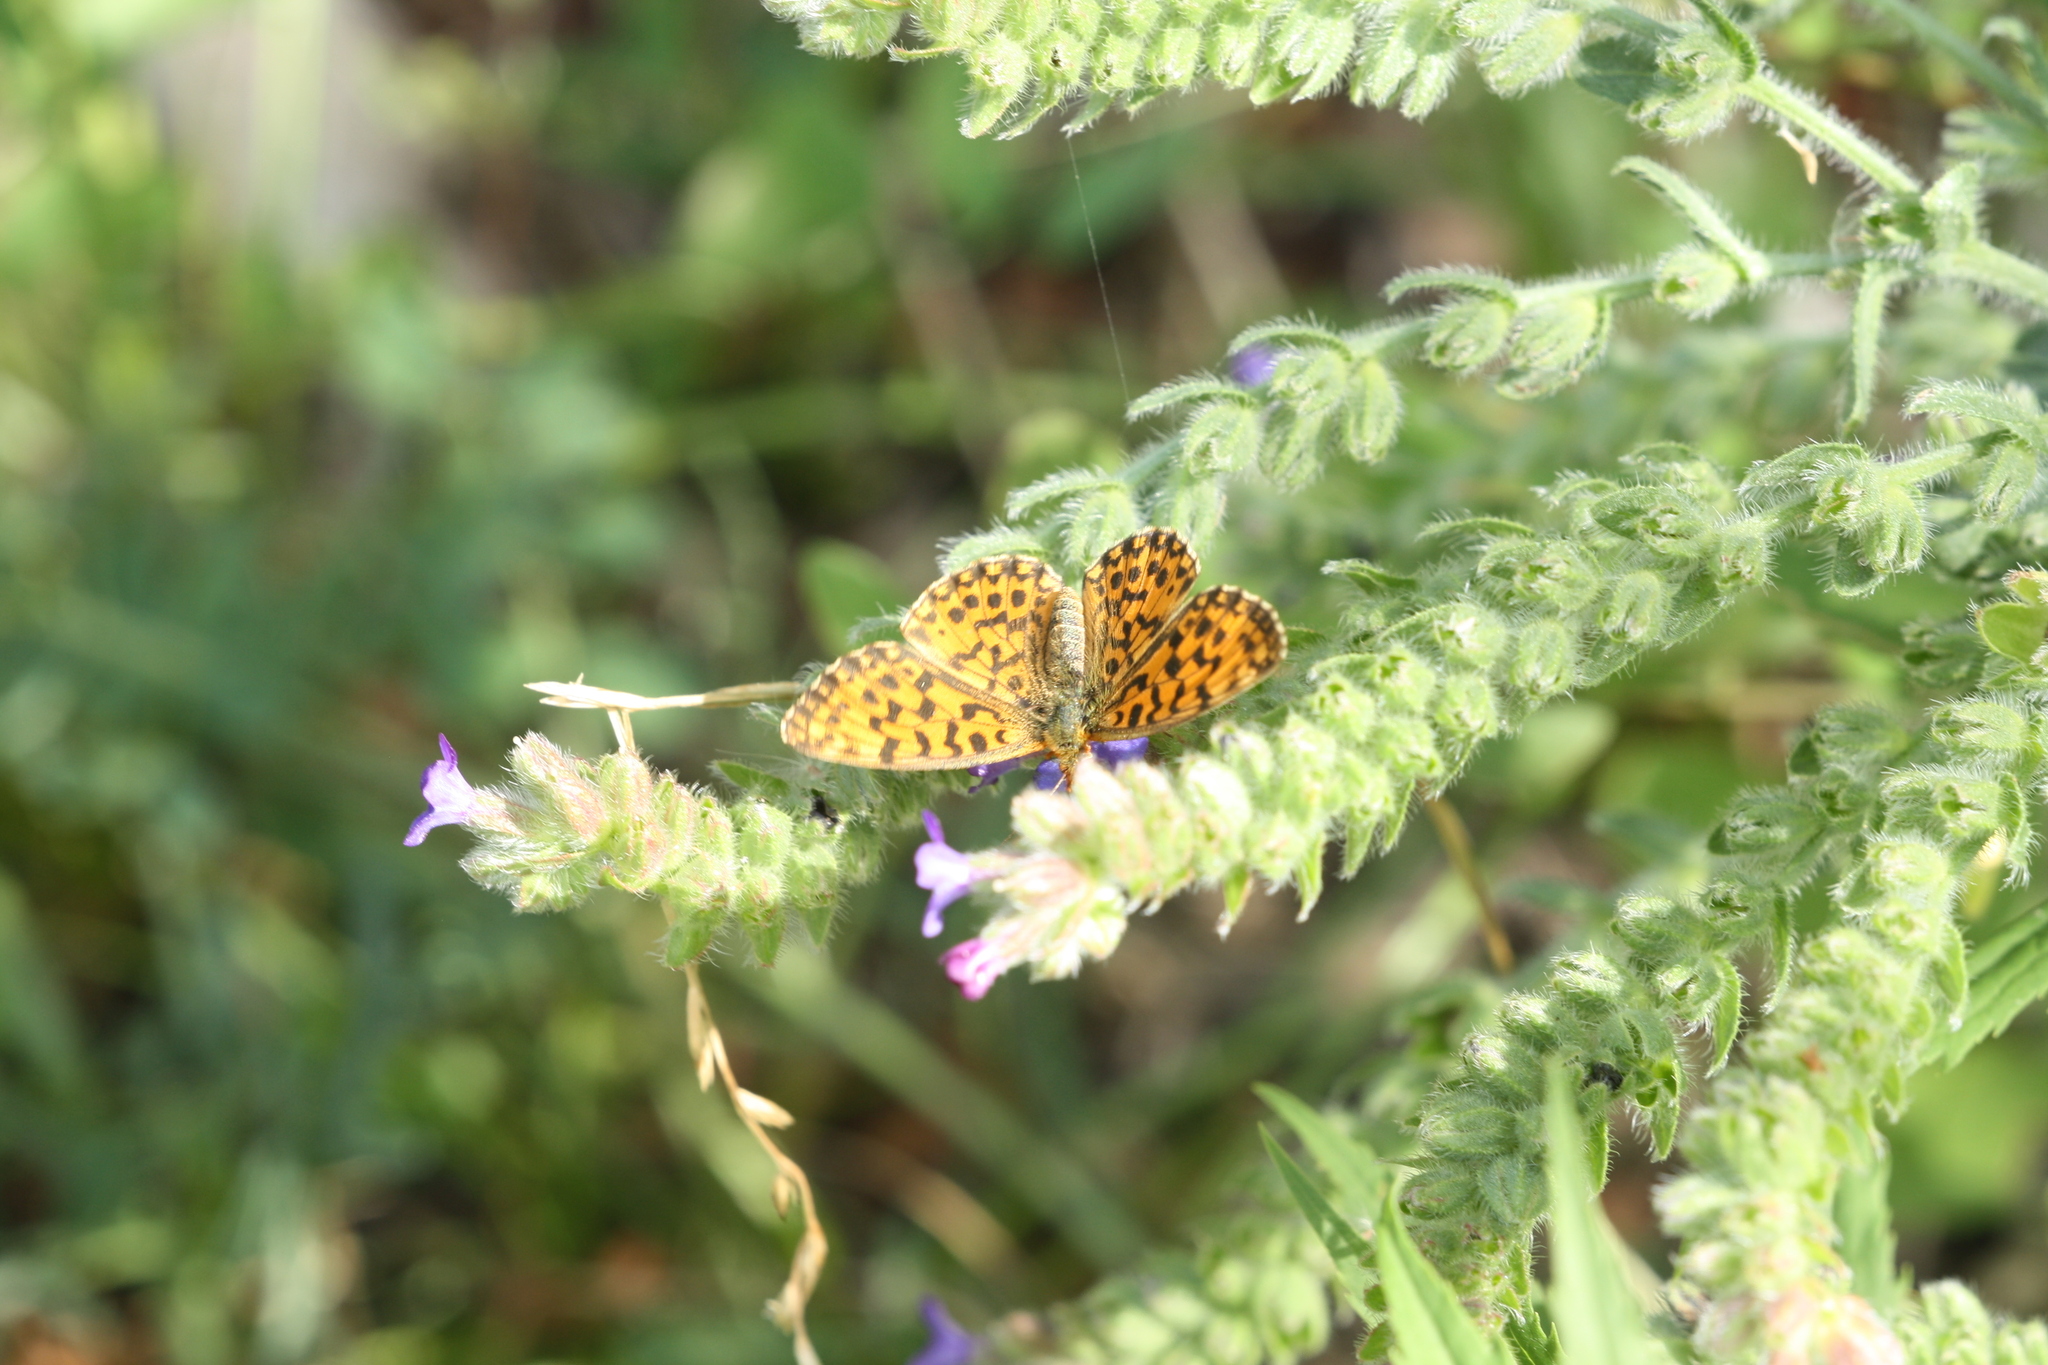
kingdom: Animalia
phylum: Arthropoda
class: Insecta
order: Lepidoptera
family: Nymphalidae
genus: Boloria
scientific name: Boloria dia
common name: Weaver's fritillary
